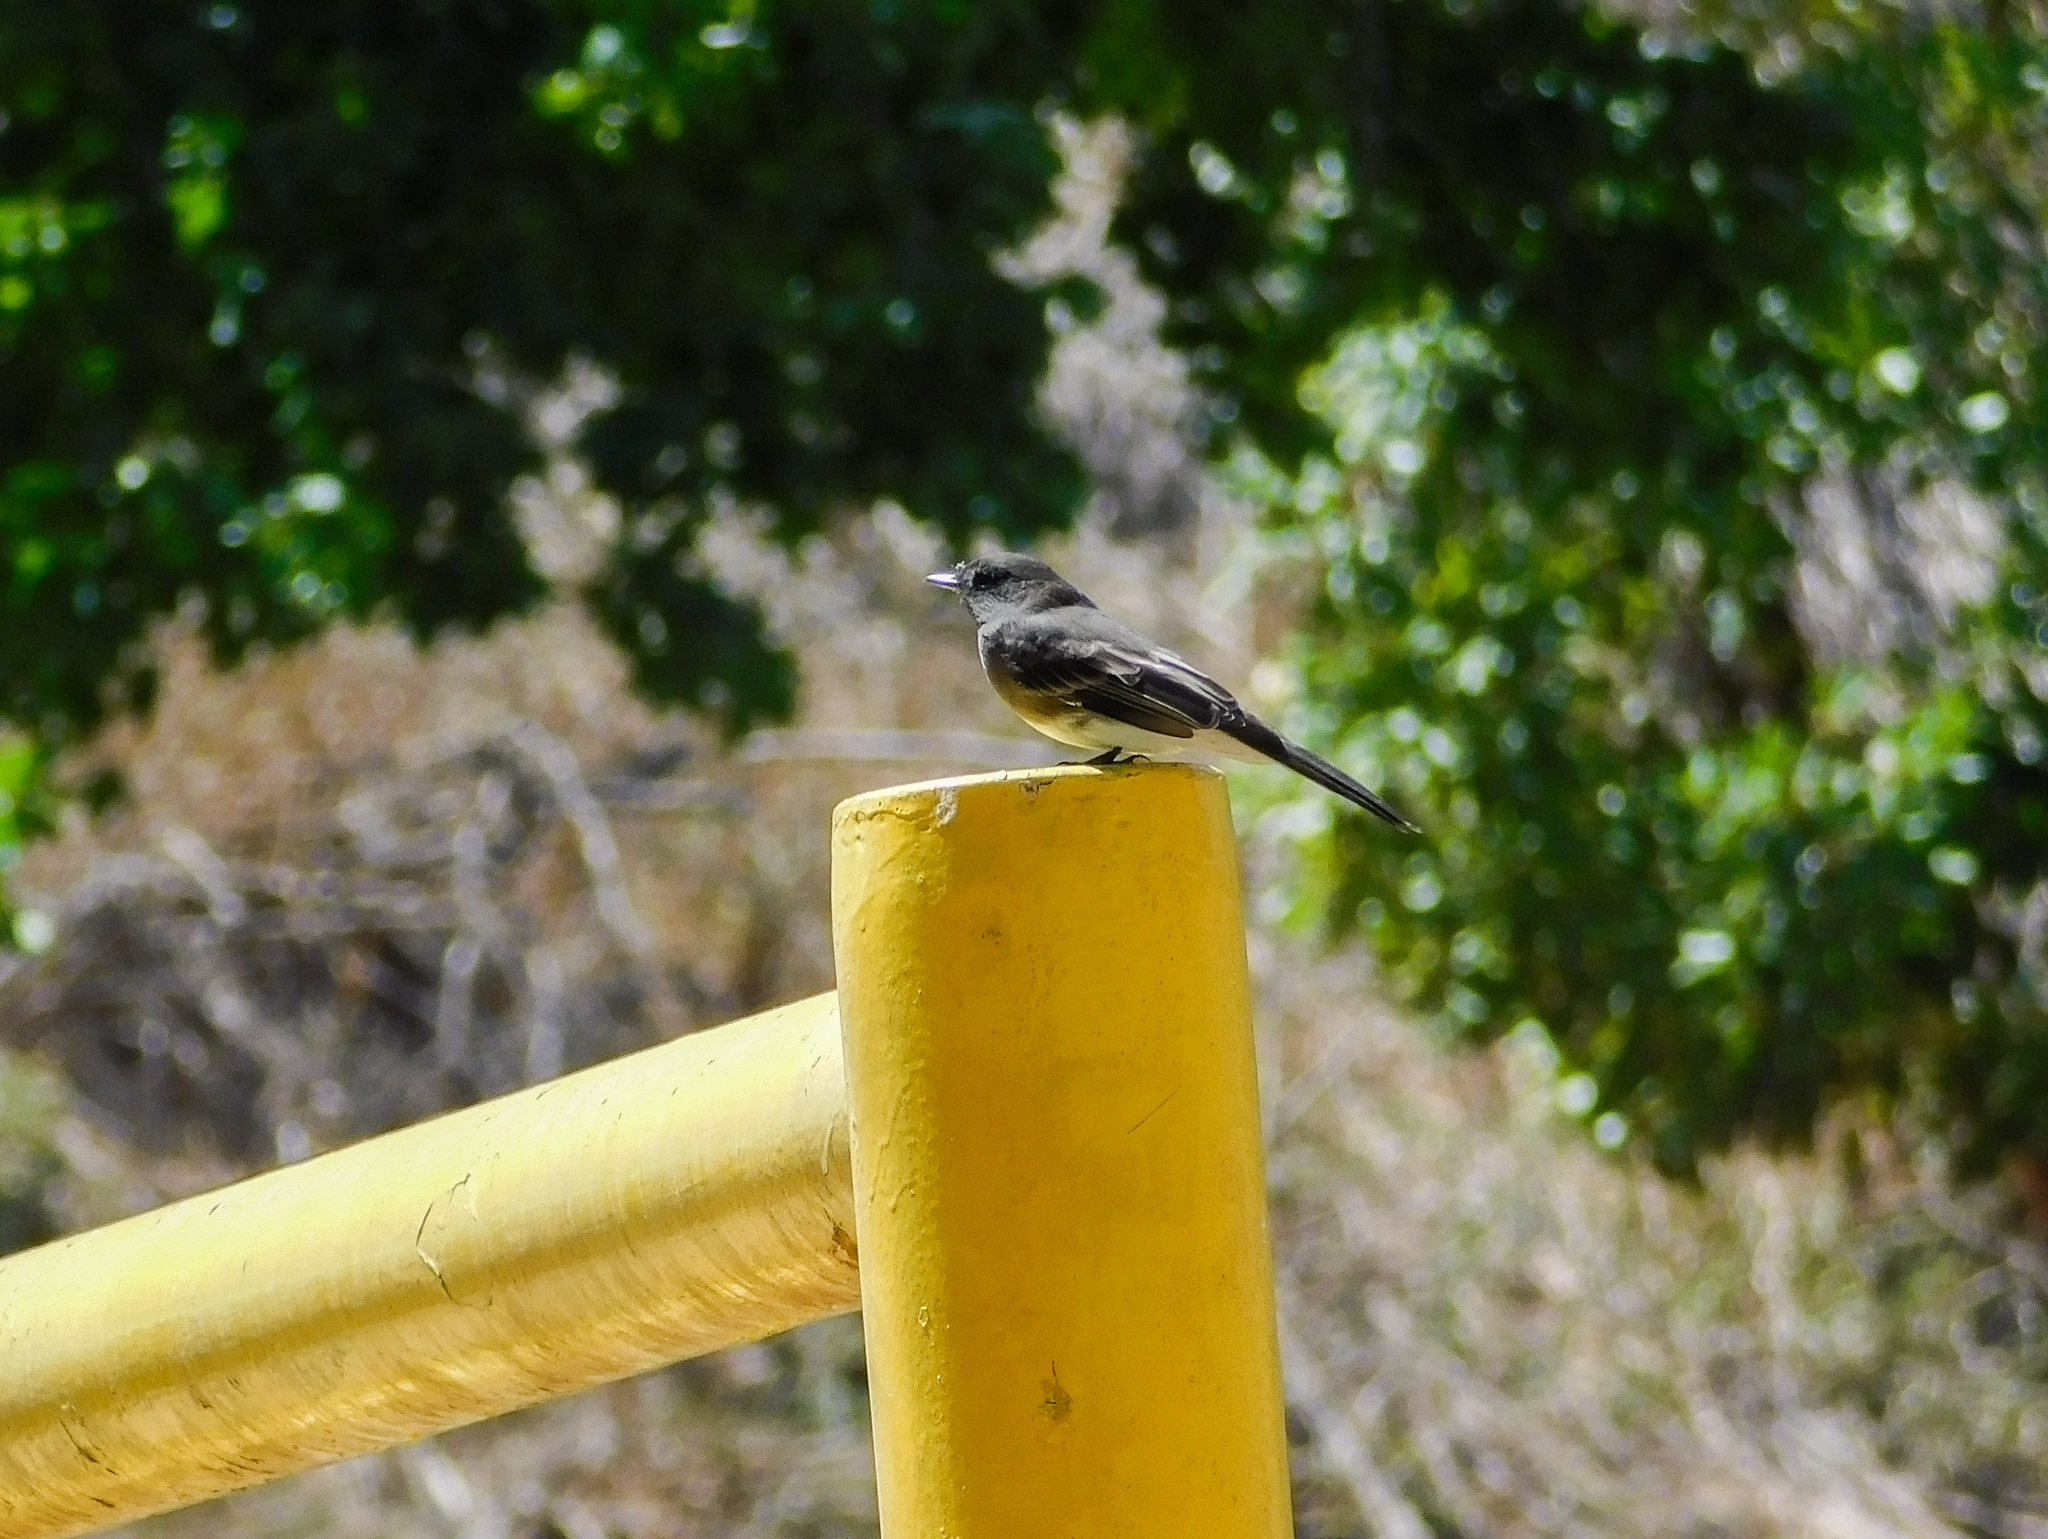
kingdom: Animalia
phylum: Chordata
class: Aves
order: Passeriformes
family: Tyrannidae
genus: Sayornis
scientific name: Sayornis nigricans
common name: Black phoebe
